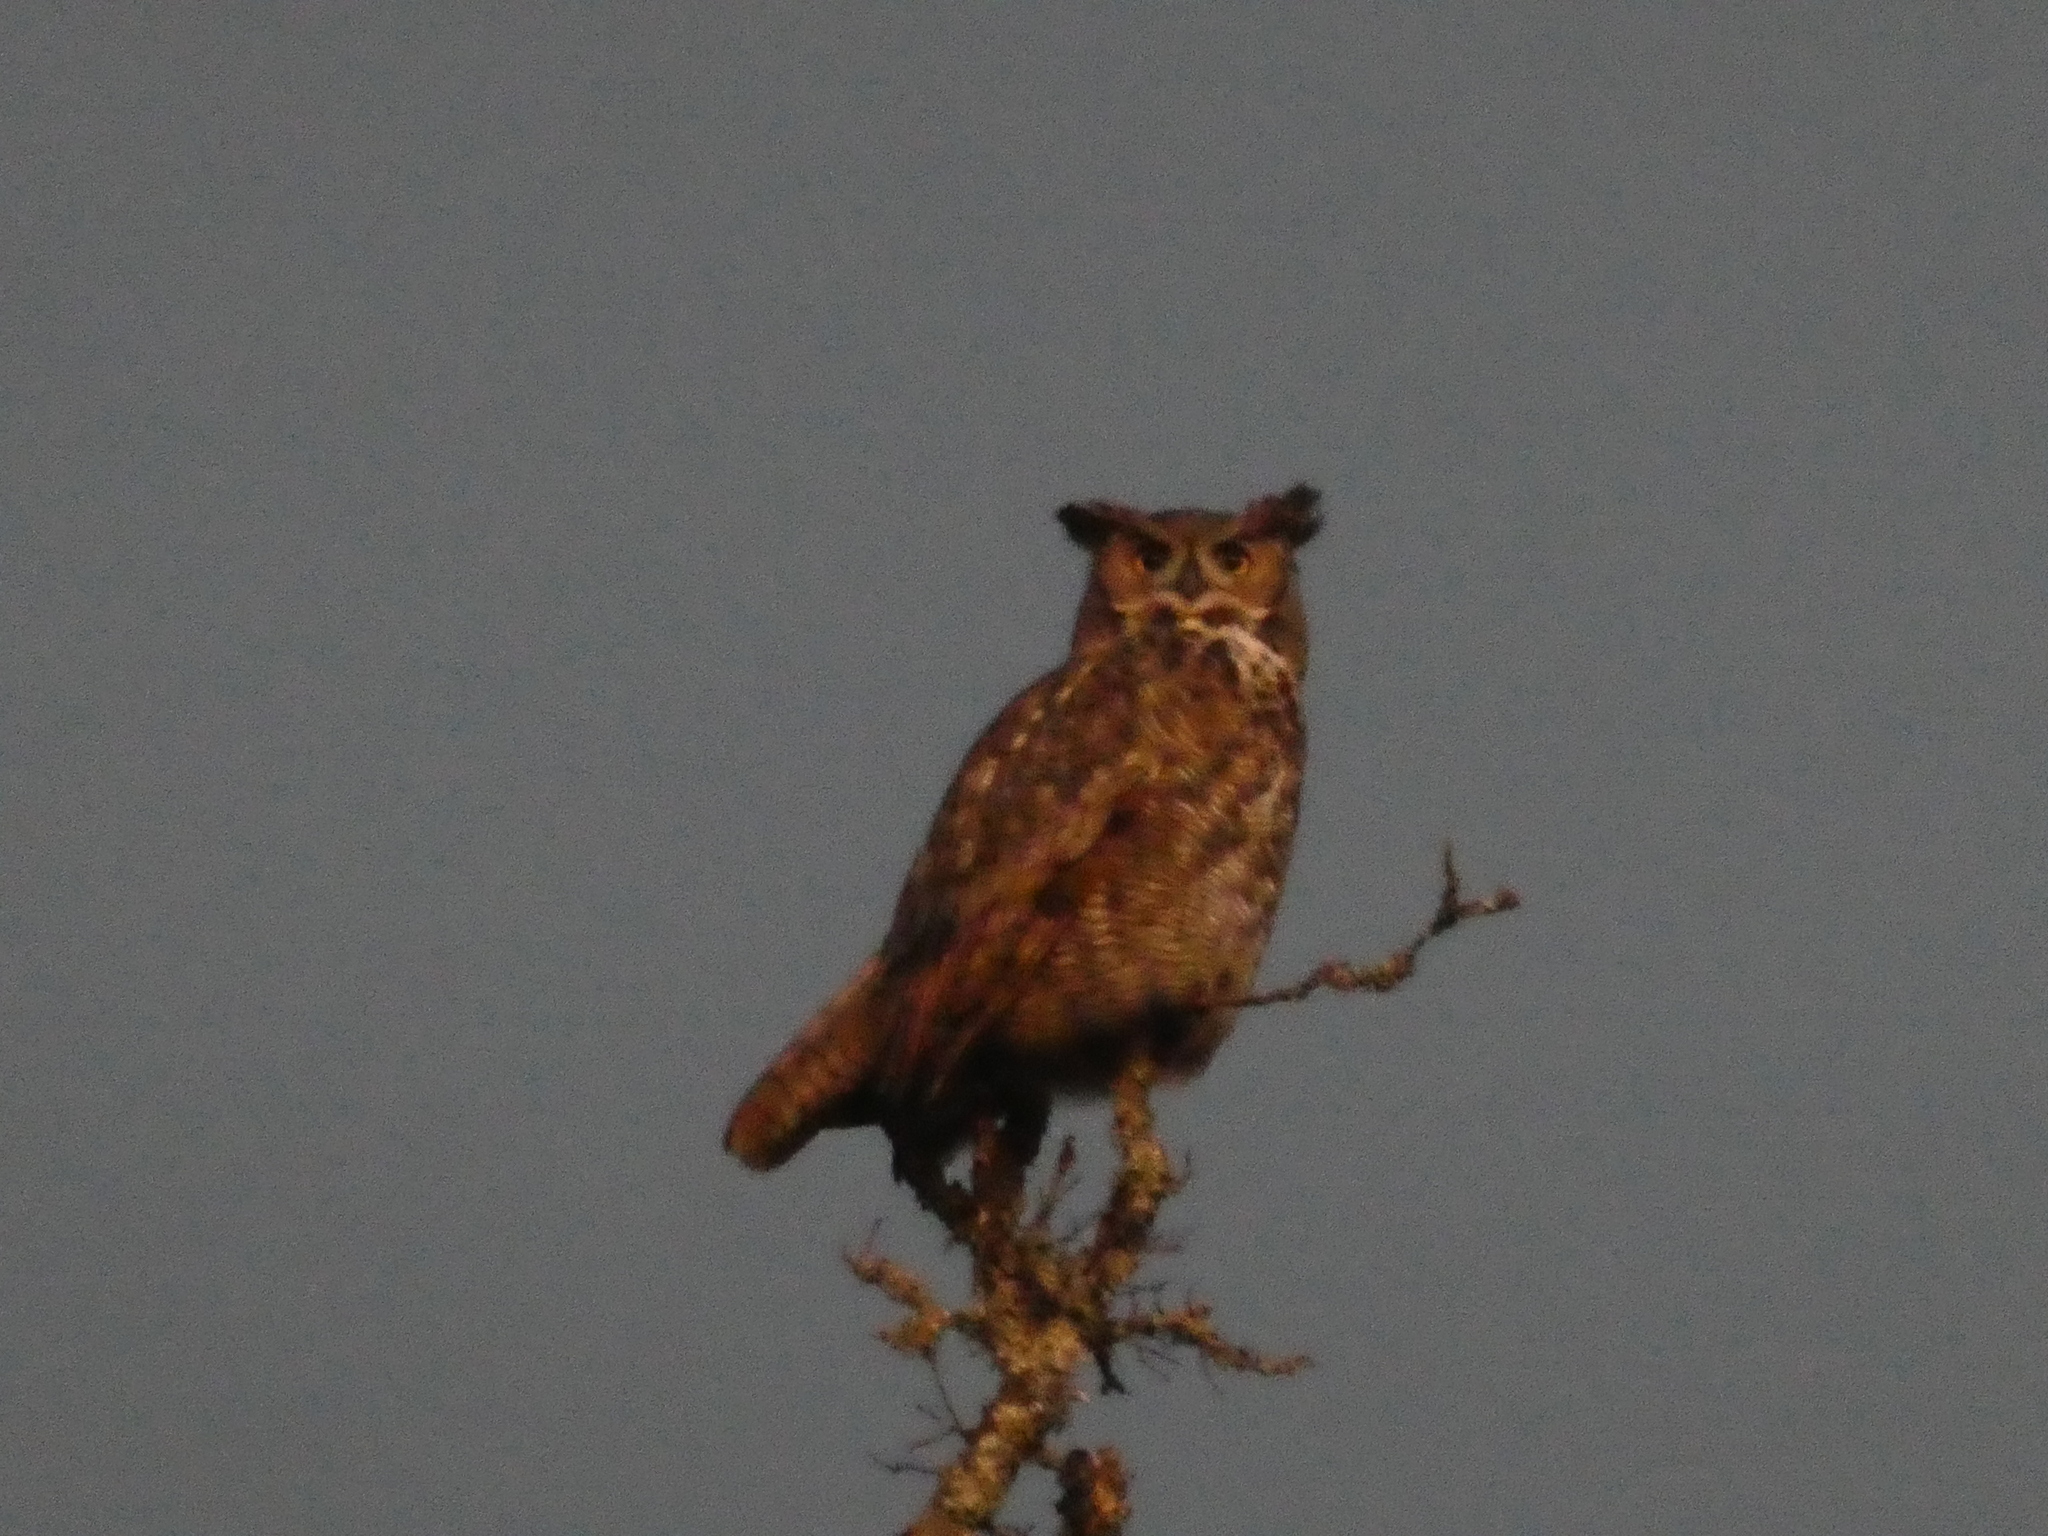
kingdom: Animalia
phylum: Chordata
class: Aves
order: Strigiformes
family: Strigidae
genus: Bubo
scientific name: Bubo virginianus
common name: Great horned owl
